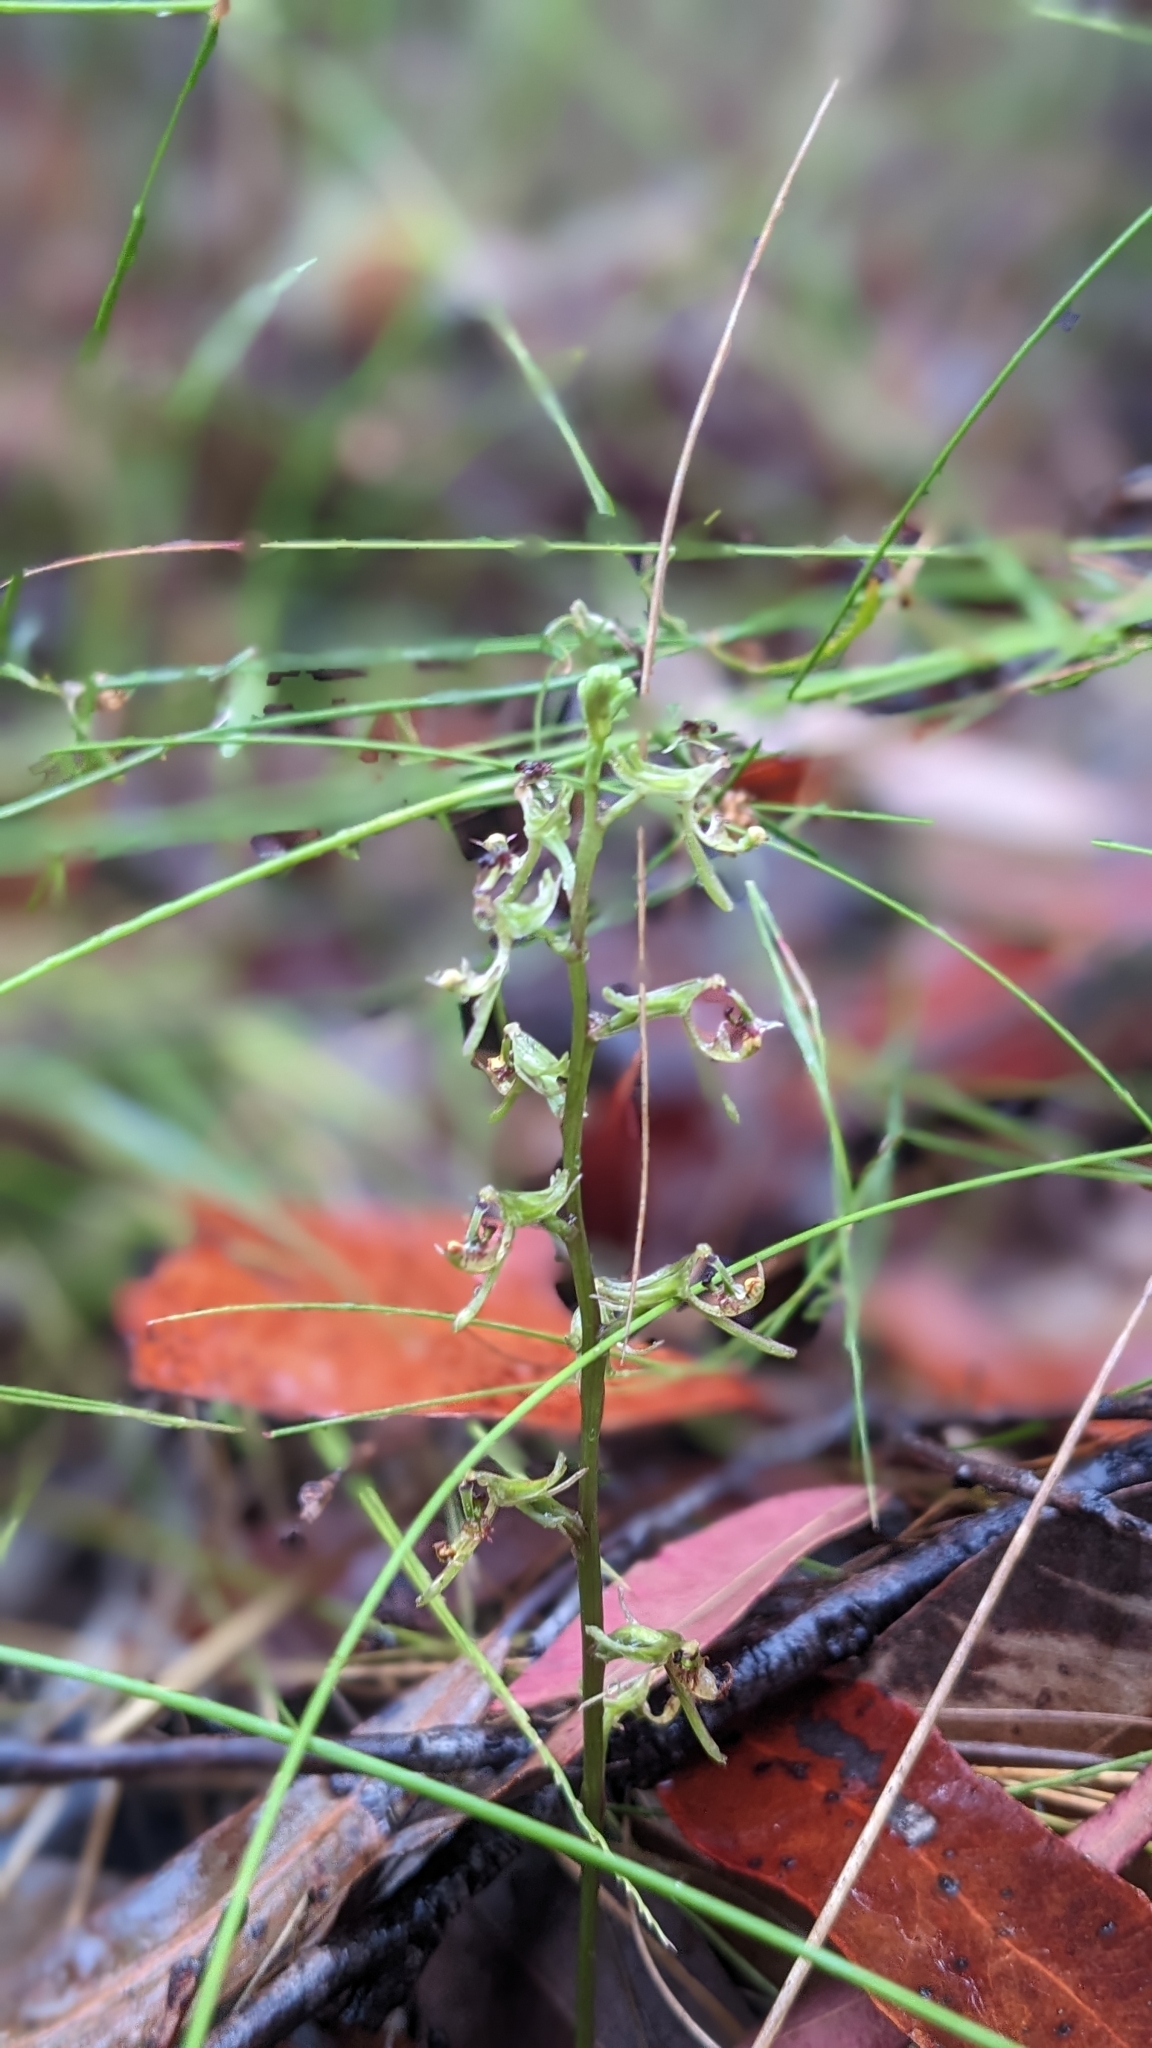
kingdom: Plantae
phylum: Tracheophyta
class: Liliopsida
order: Asparagales
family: Orchidaceae
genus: Arthrochilus
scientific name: Arthrochilus prolixus
